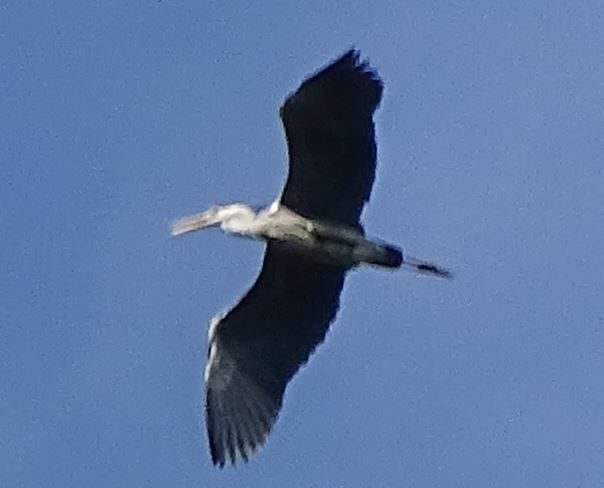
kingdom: Animalia
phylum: Chordata
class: Aves
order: Pelecaniformes
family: Ardeidae
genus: Ardea
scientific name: Ardea cinerea
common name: Grey heron
